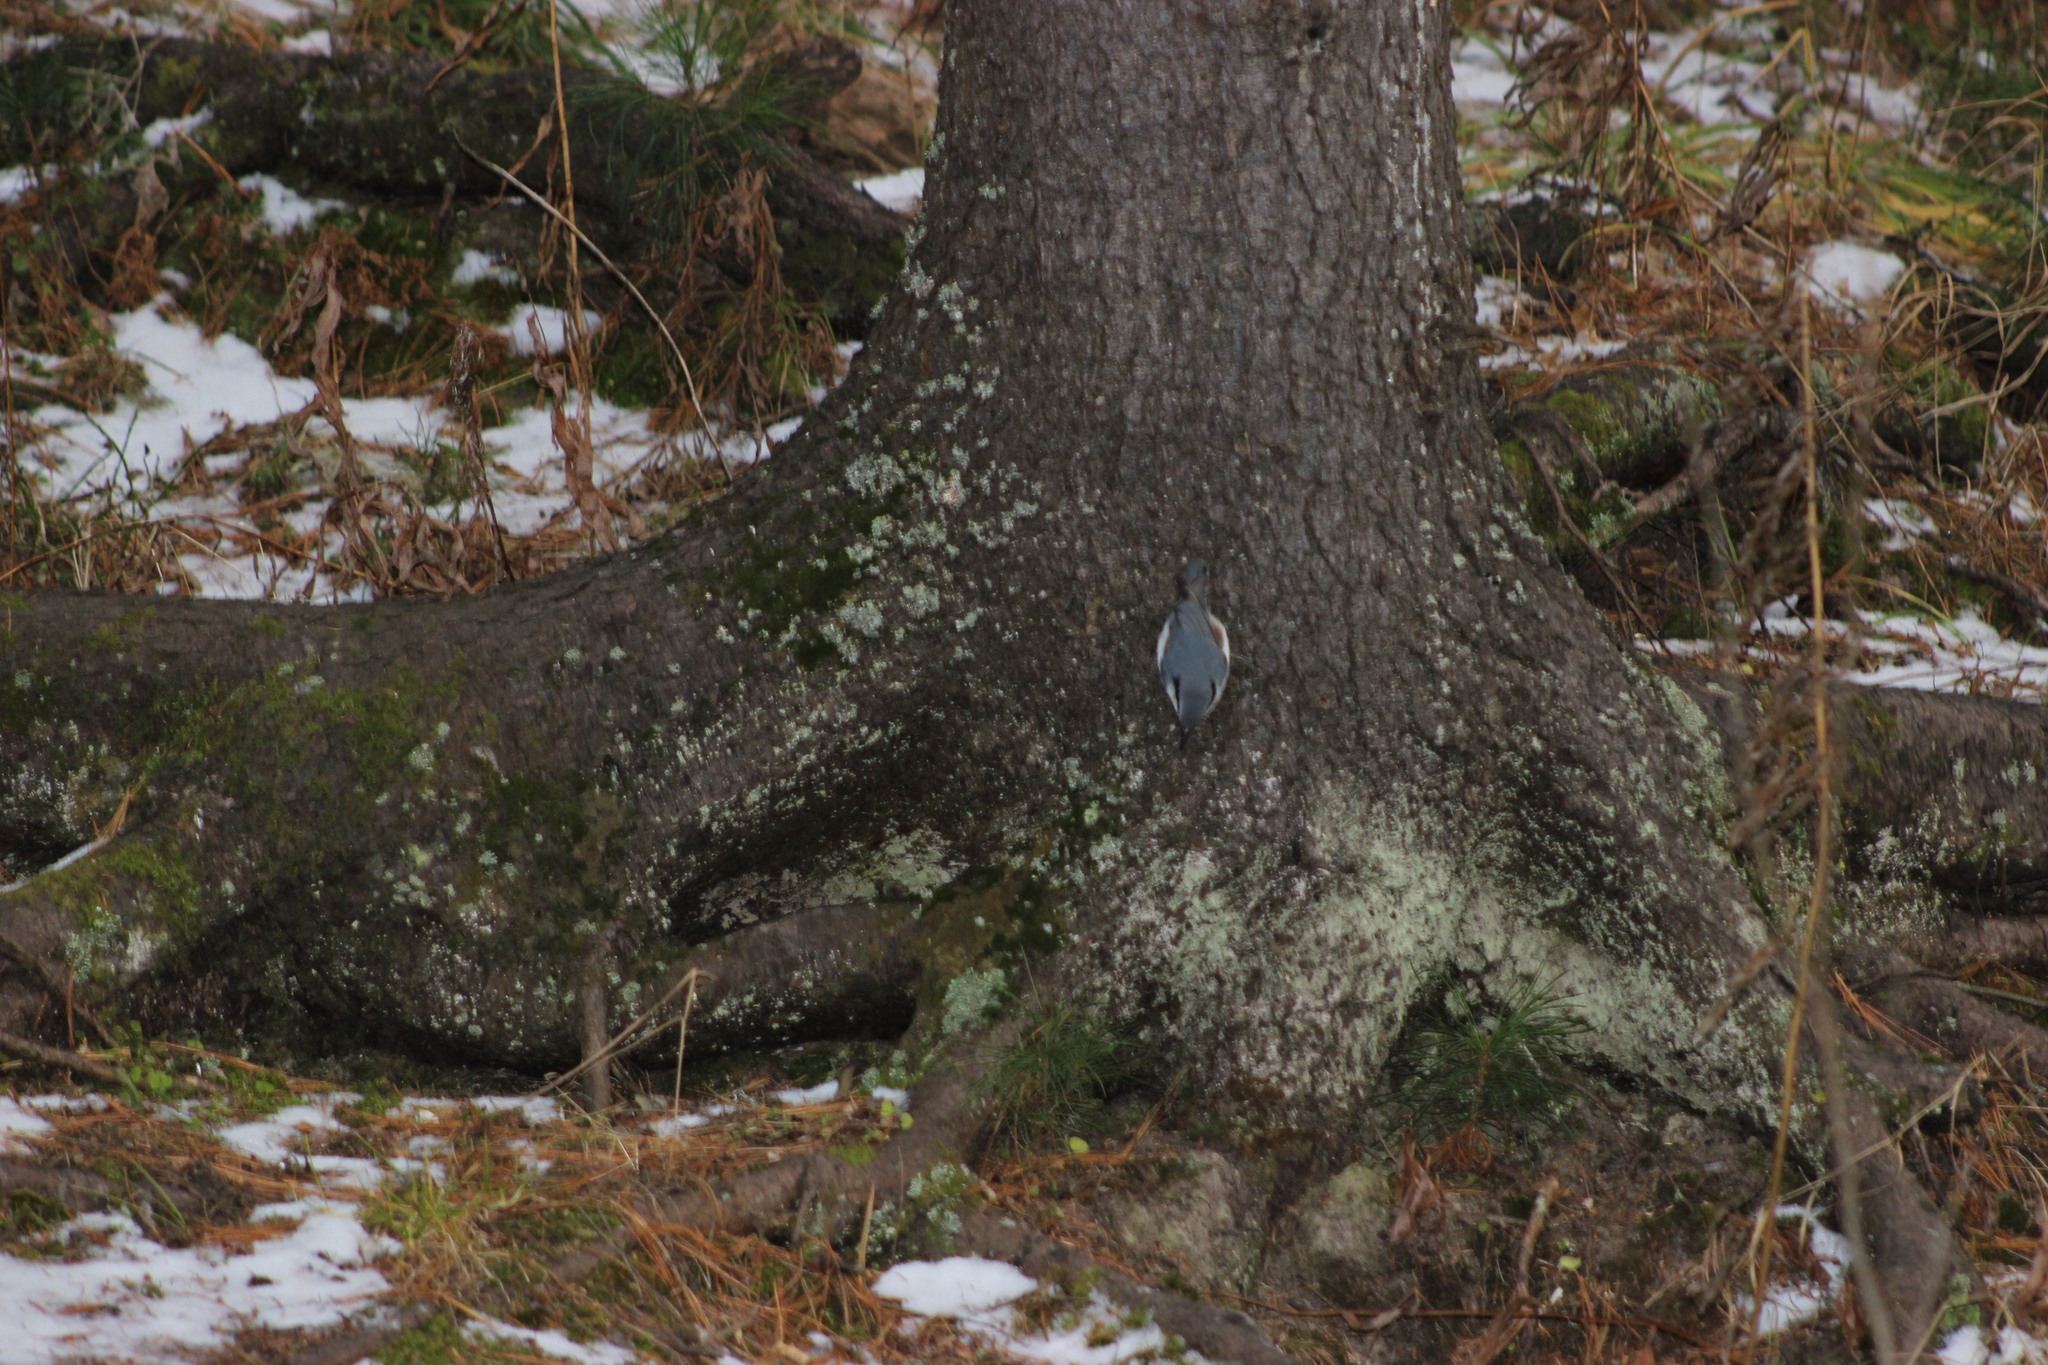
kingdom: Animalia
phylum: Chordata
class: Aves
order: Passeriformes
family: Sittidae
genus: Sitta
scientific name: Sitta europaea
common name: Eurasian nuthatch
